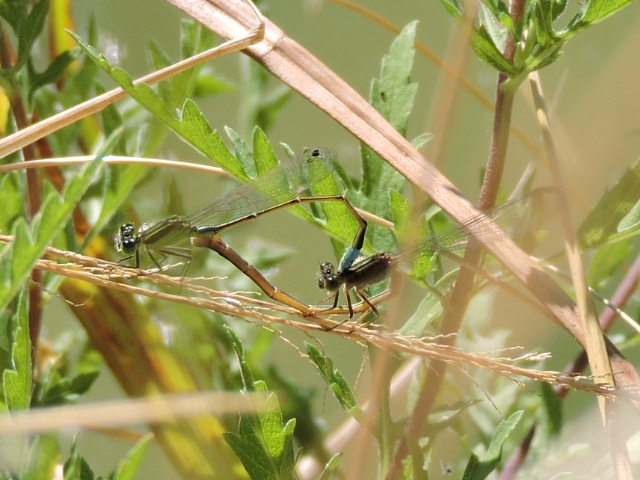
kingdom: Animalia
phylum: Arthropoda
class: Insecta
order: Odonata
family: Coenagrionidae
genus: Ischnura
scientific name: Ischnura ramburii
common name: Rambur's forktail
